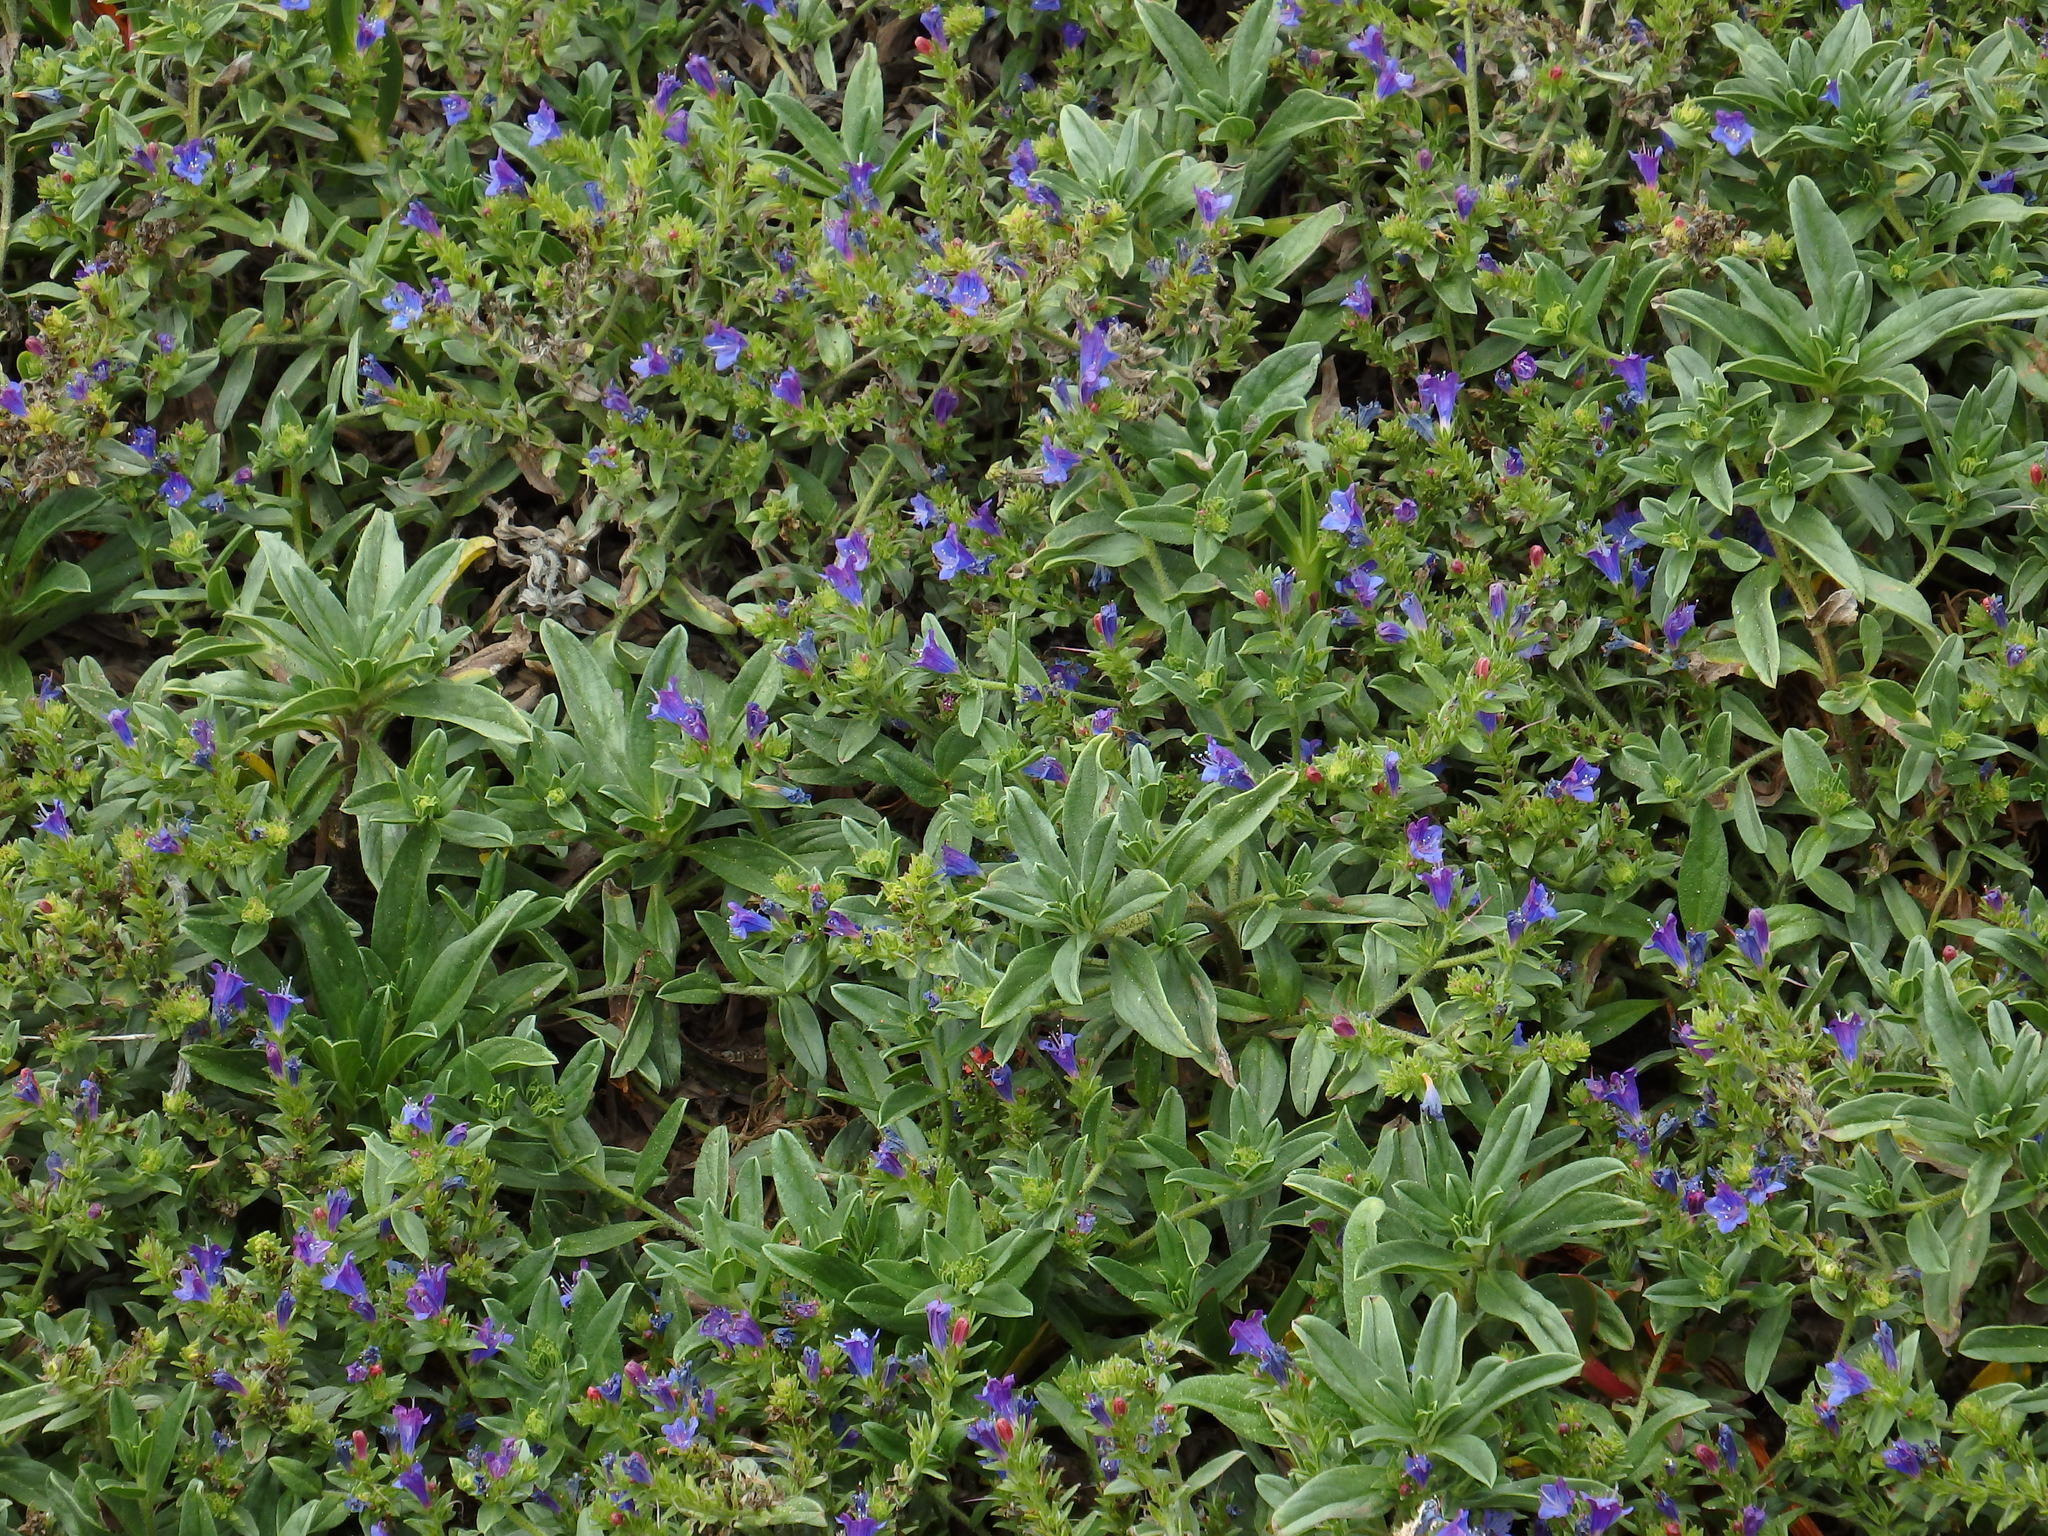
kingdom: Plantae
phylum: Tracheophyta
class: Magnoliopsida
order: Boraginales
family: Boraginaceae
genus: Echium
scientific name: Echium rosulatum
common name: Lax viper's-bugloss
